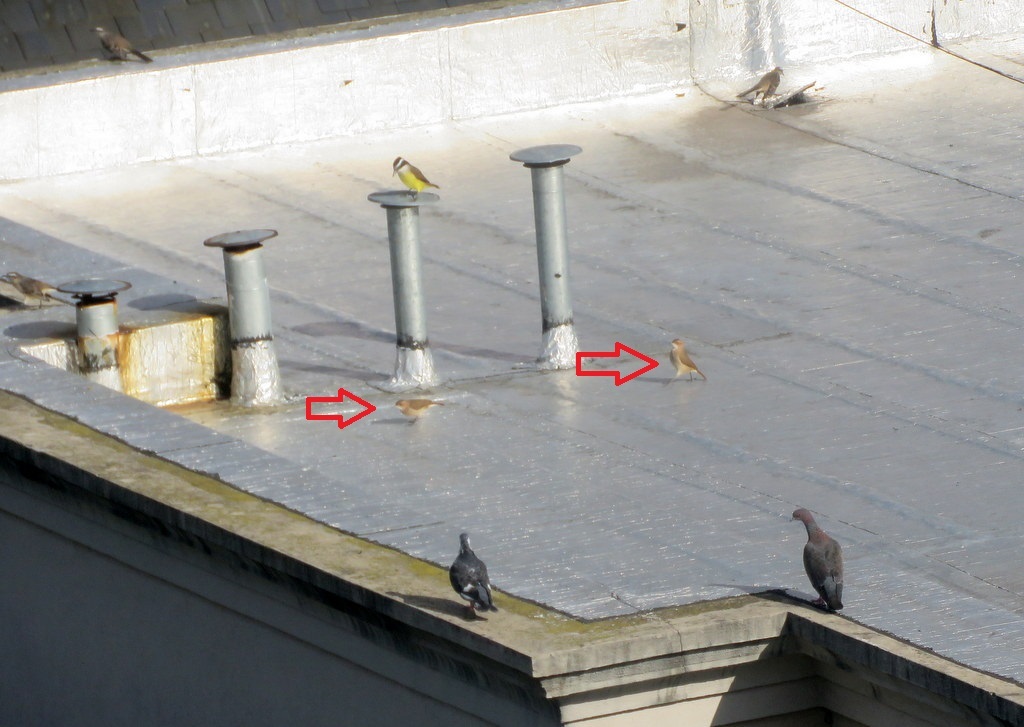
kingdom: Animalia
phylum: Chordata
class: Aves
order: Passeriformes
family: Furnariidae
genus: Furnarius
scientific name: Furnarius rufus
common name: Rufous hornero
